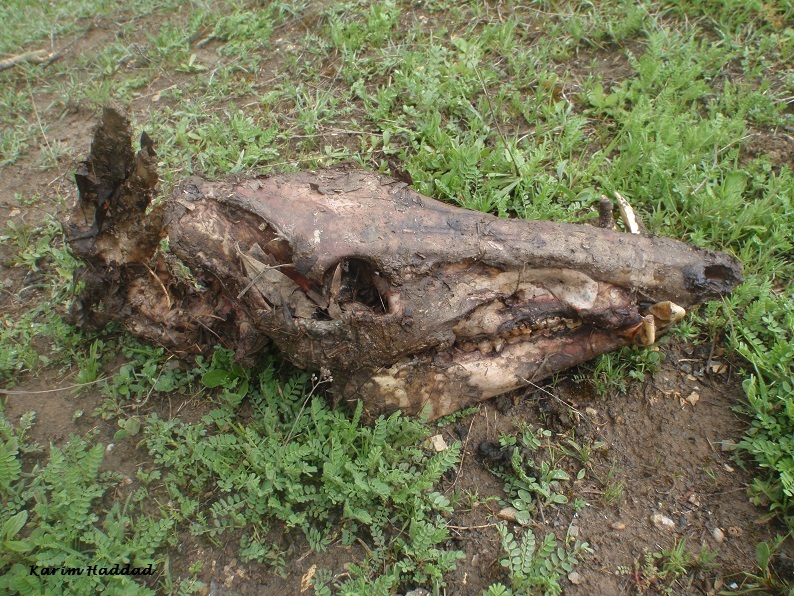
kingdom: Animalia
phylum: Chordata
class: Mammalia
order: Artiodactyla
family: Suidae
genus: Sus
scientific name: Sus scrofa
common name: Wild boar
